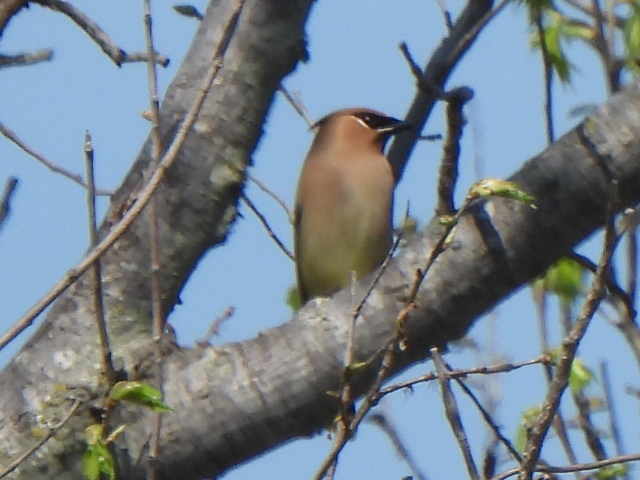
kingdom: Animalia
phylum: Chordata
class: Aves
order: Passeriformes
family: Bombycillidae
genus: Bombycilla
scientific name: Bombycilla cedrorum
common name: Cedar waxwing
